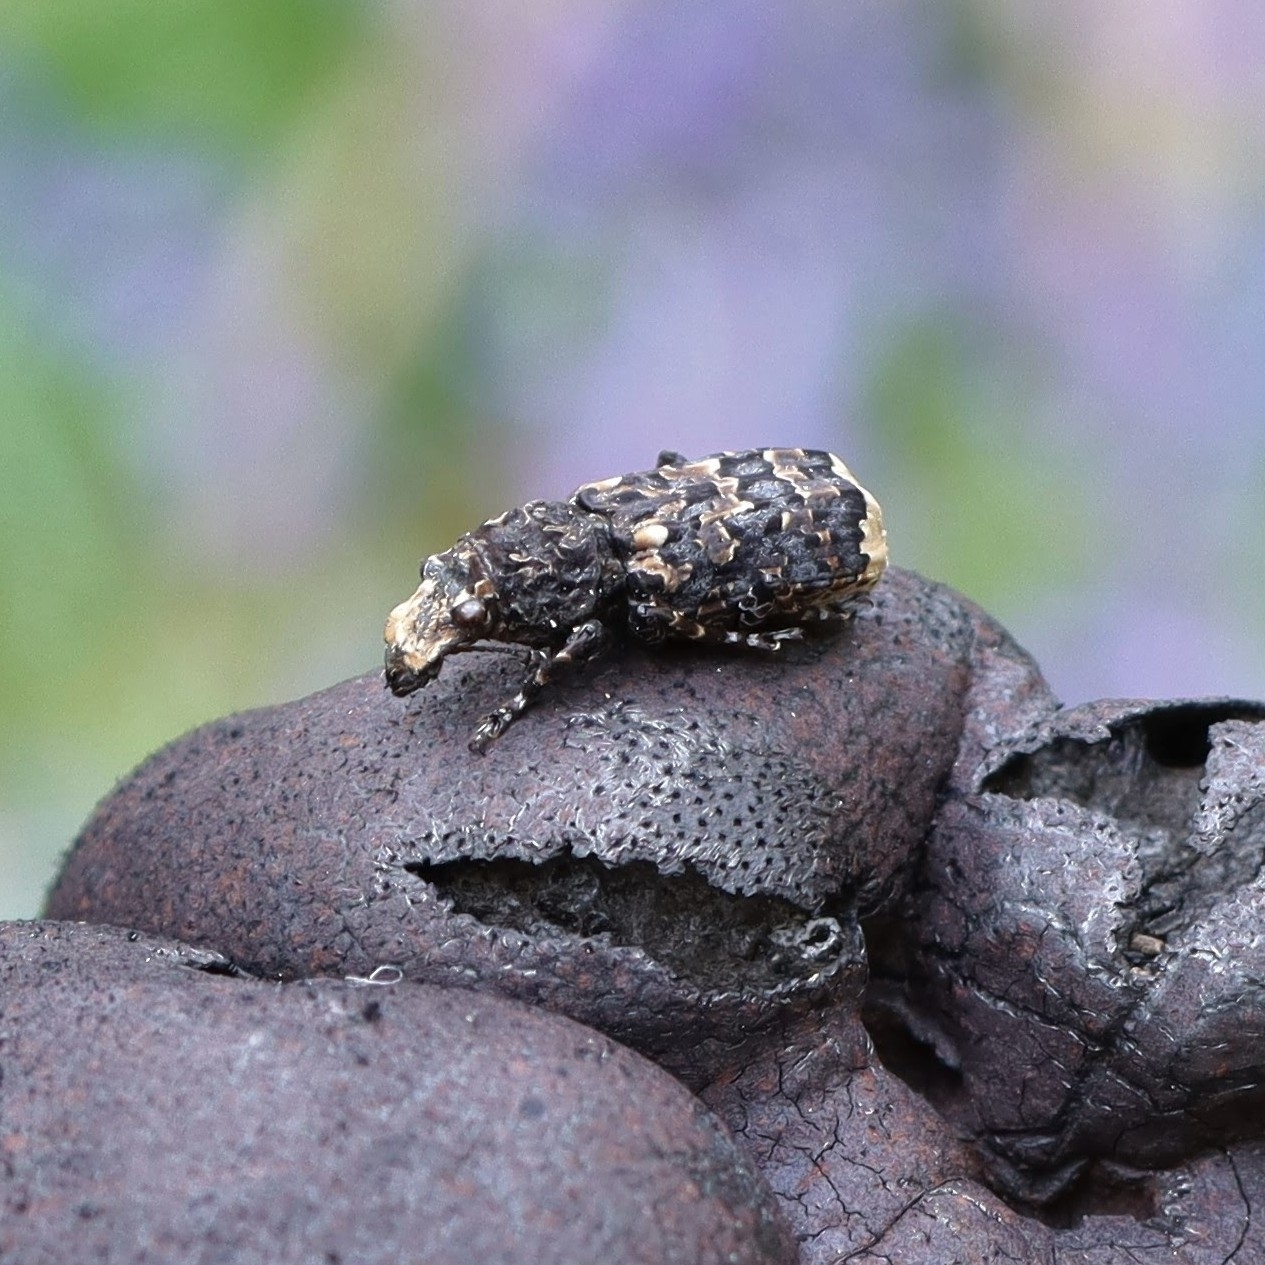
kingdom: Animalia
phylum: Arthropoda
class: Insecta
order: Coleoptera
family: Anthribidae
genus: Platyrhinus
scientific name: Platyrhinus resinosus
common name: Cramp-ball fungus weevil
